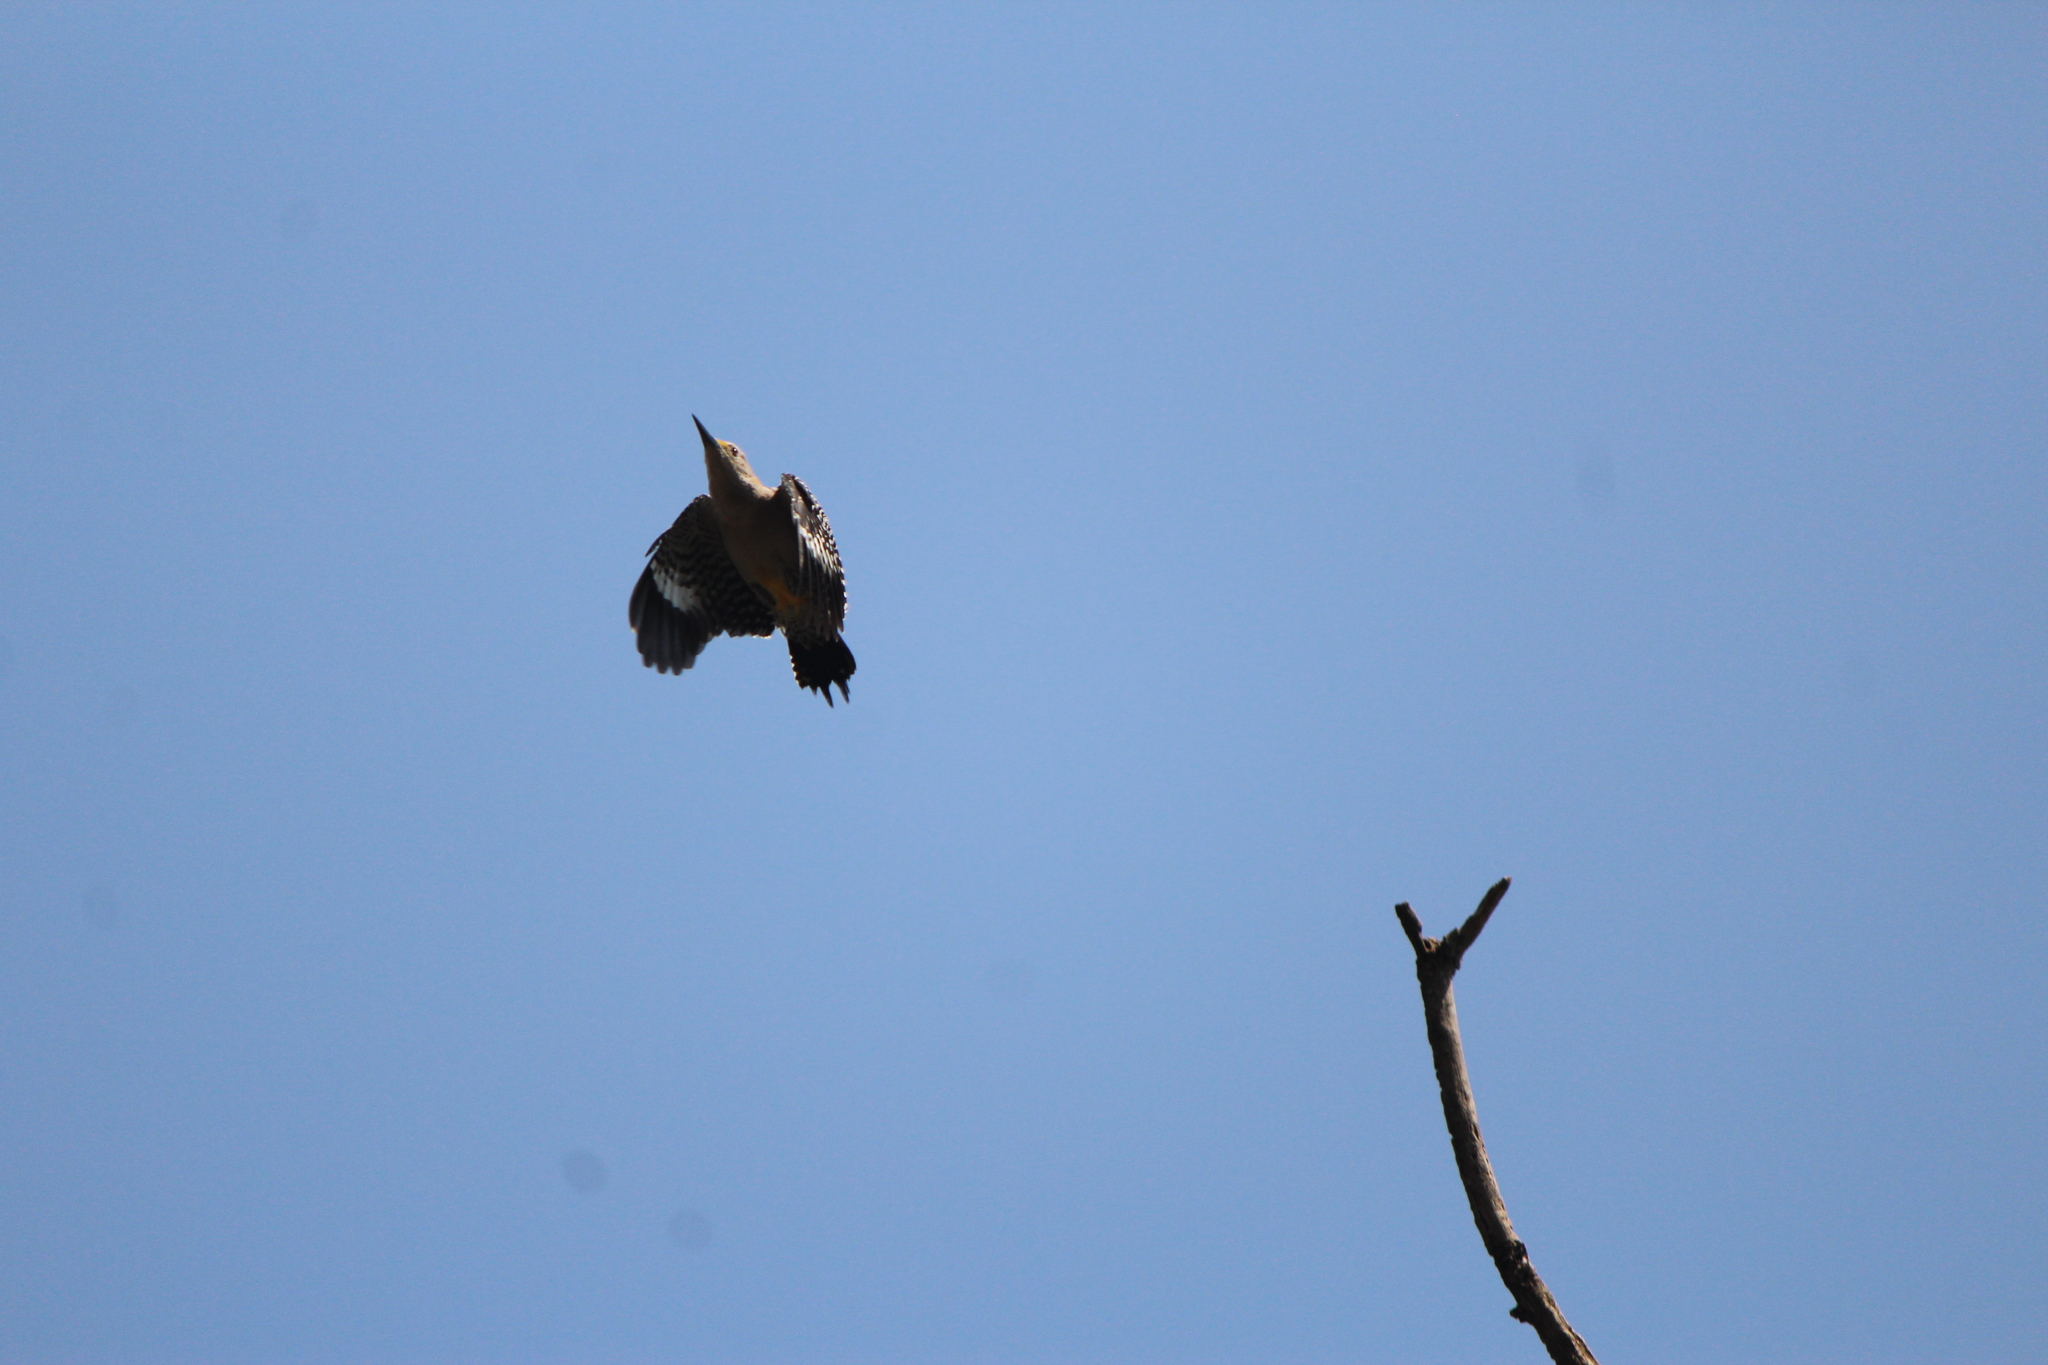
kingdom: Animalia
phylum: Chordata
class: Aves
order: Piciformes
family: Picidae
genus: Melanerpes
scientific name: Melanerpes aurifrons
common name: Golden-fronted woodpecker
